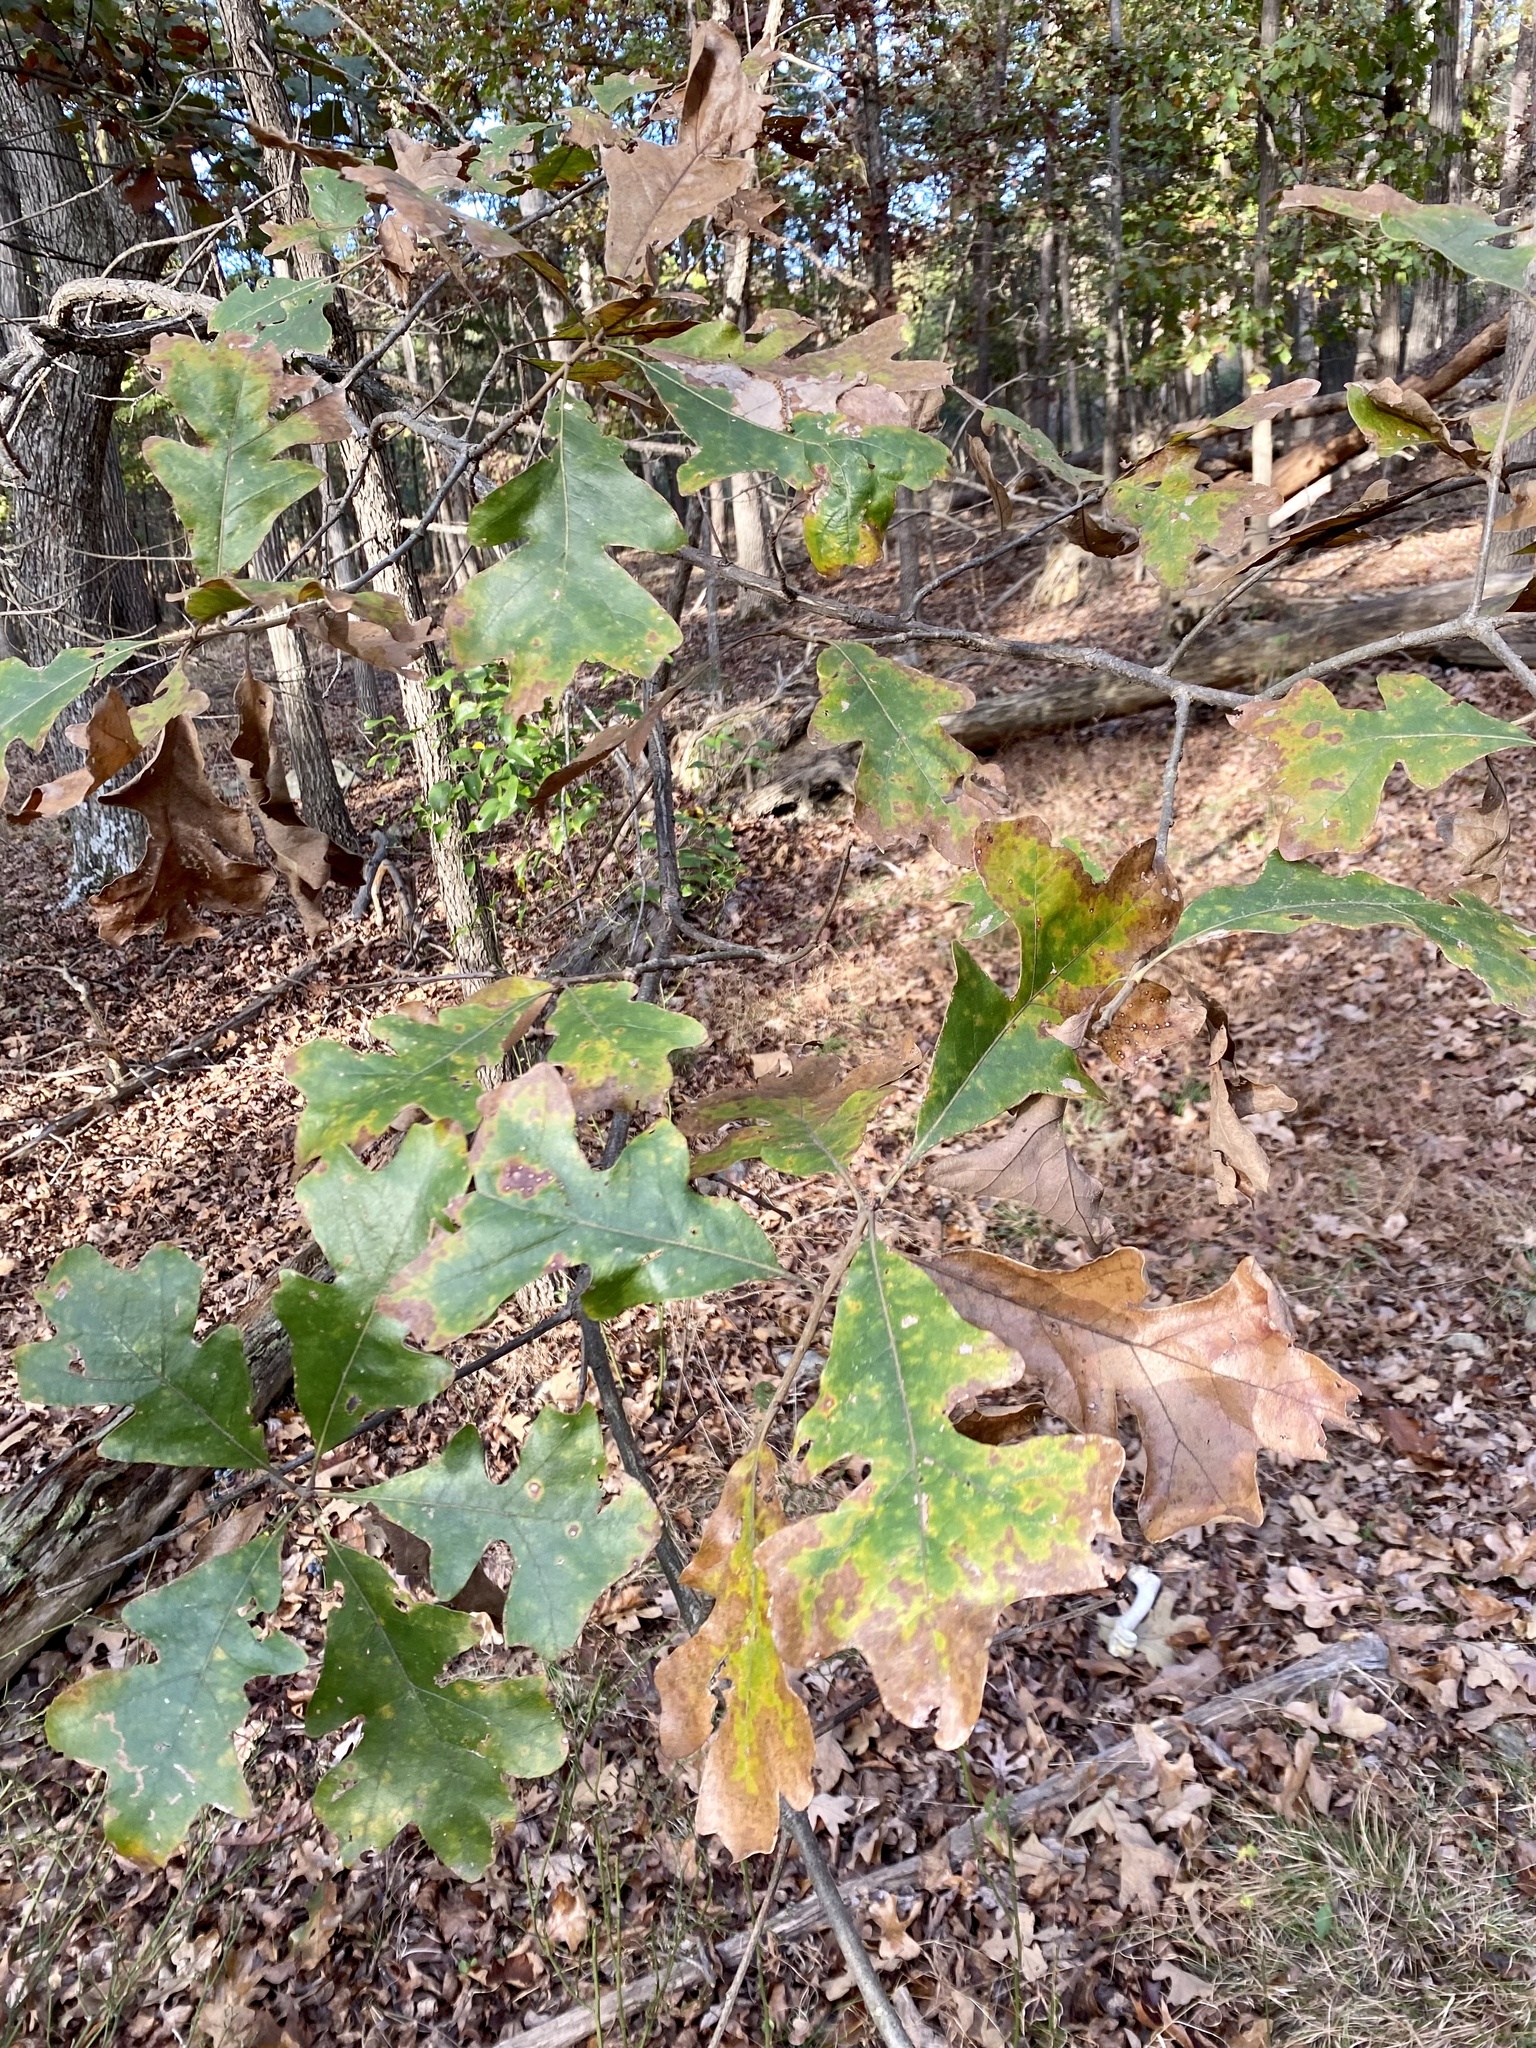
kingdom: Plantae
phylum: Tracheophyta
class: Magnoliopsida
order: Fagales
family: Fagaceae
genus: Quercus
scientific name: Quercus stellata
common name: Post oak
